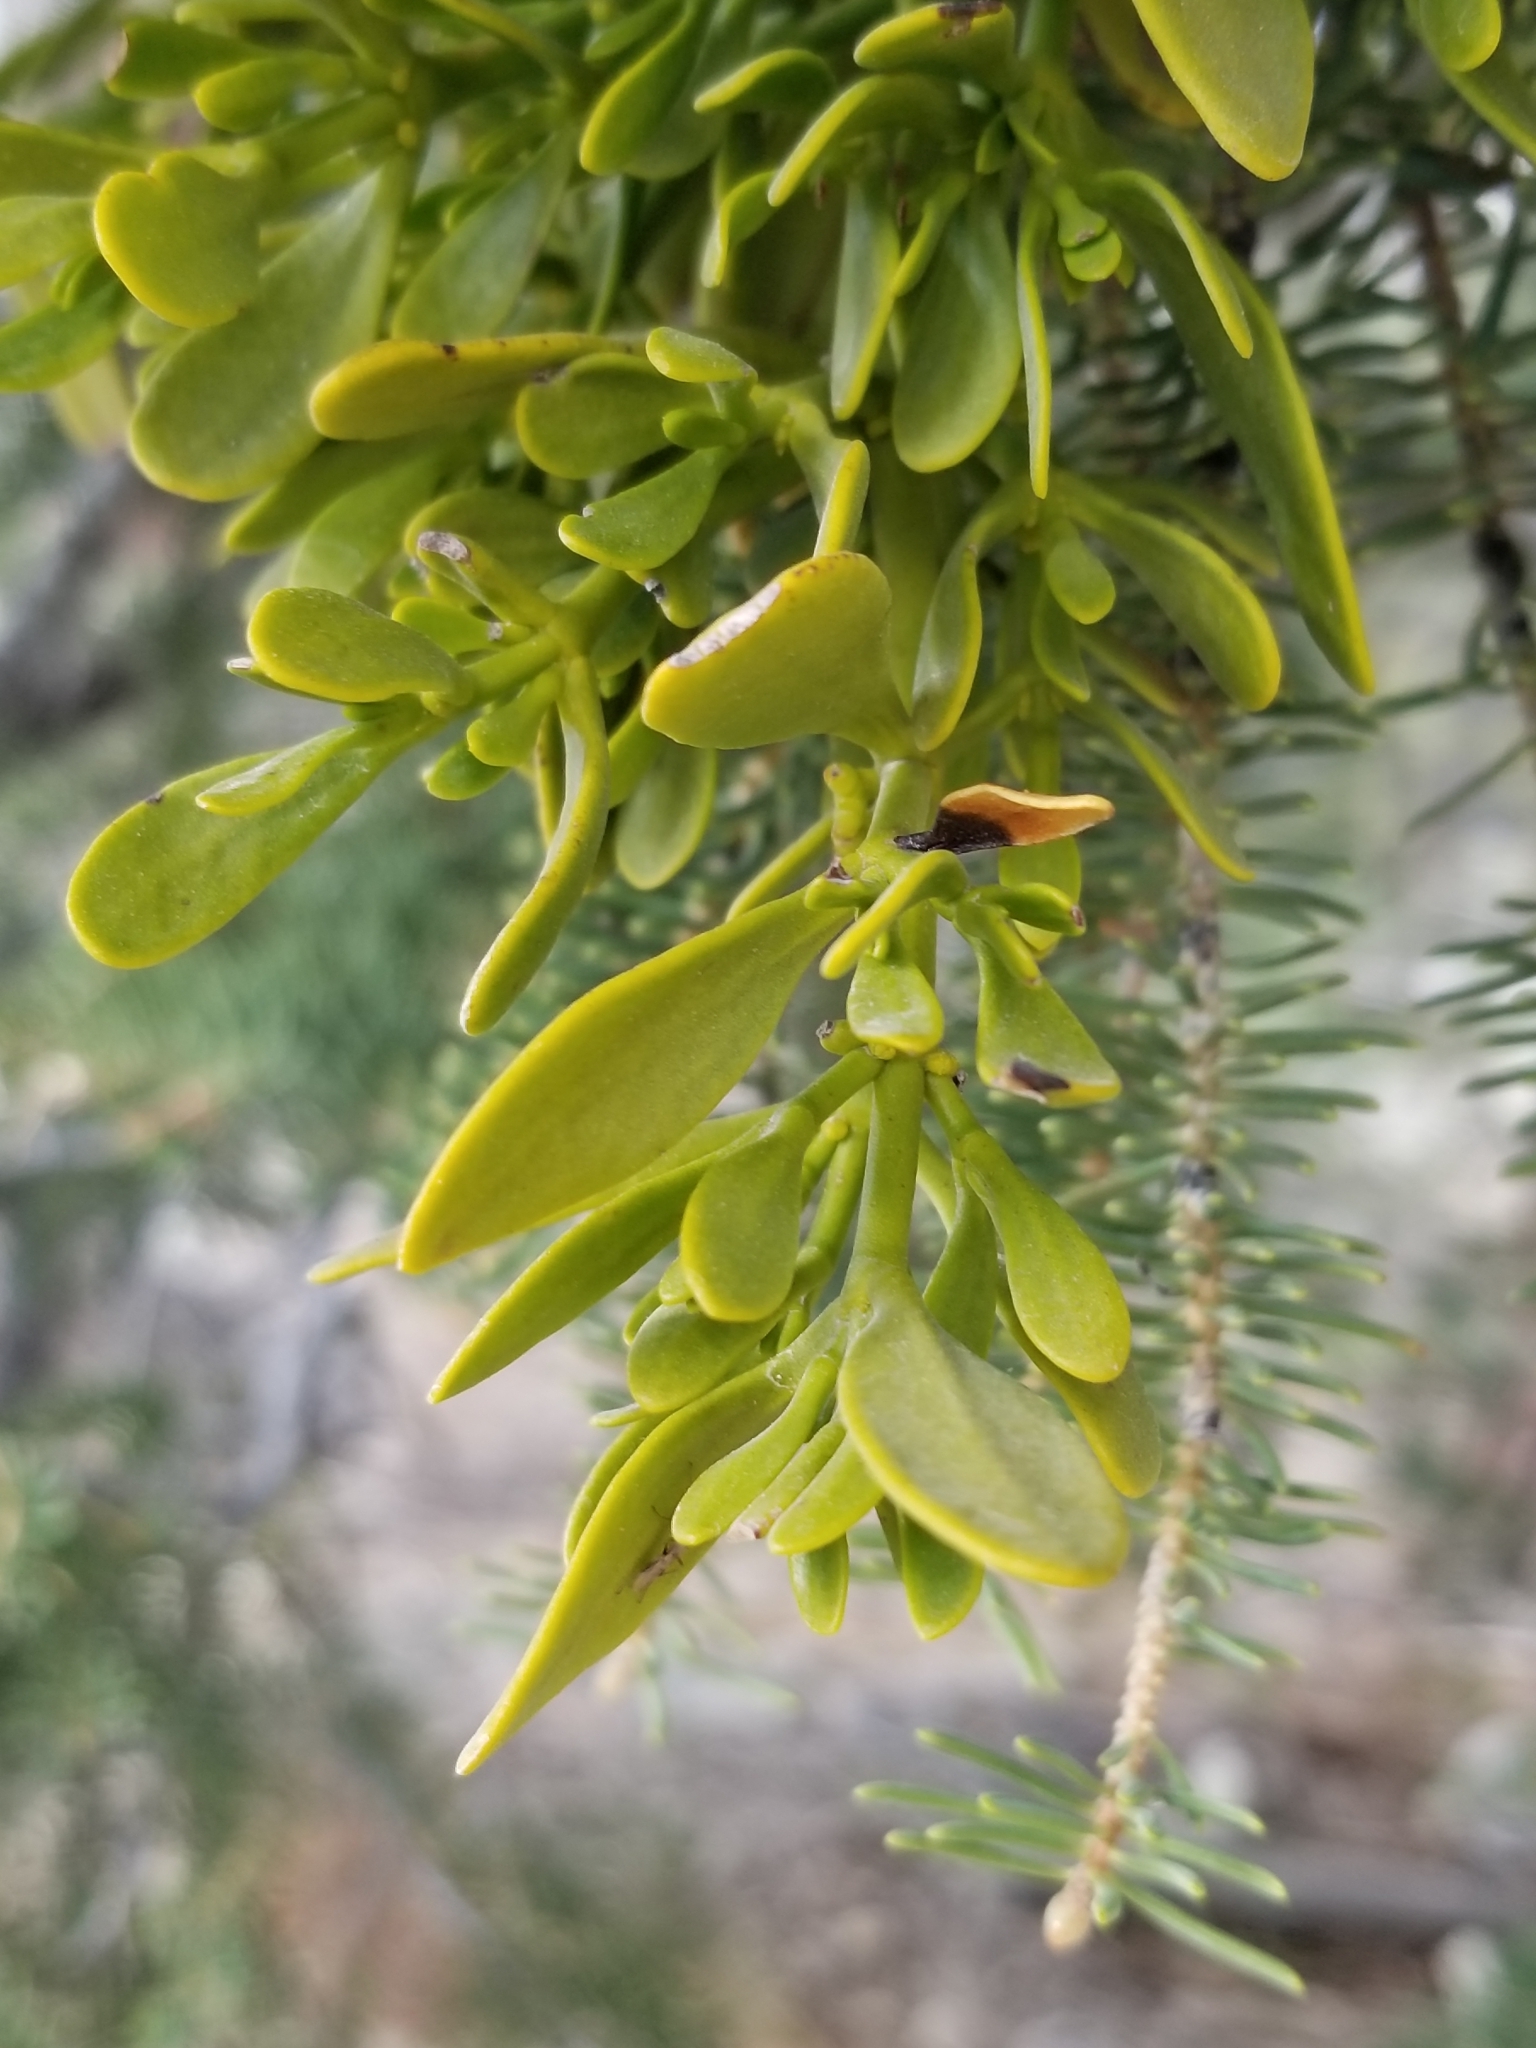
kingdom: Plantae
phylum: Tracheophyta
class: Magnoliopsida
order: Santalales
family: Viscaceae
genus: Phoradendron
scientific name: Phoradendron bolleanum
